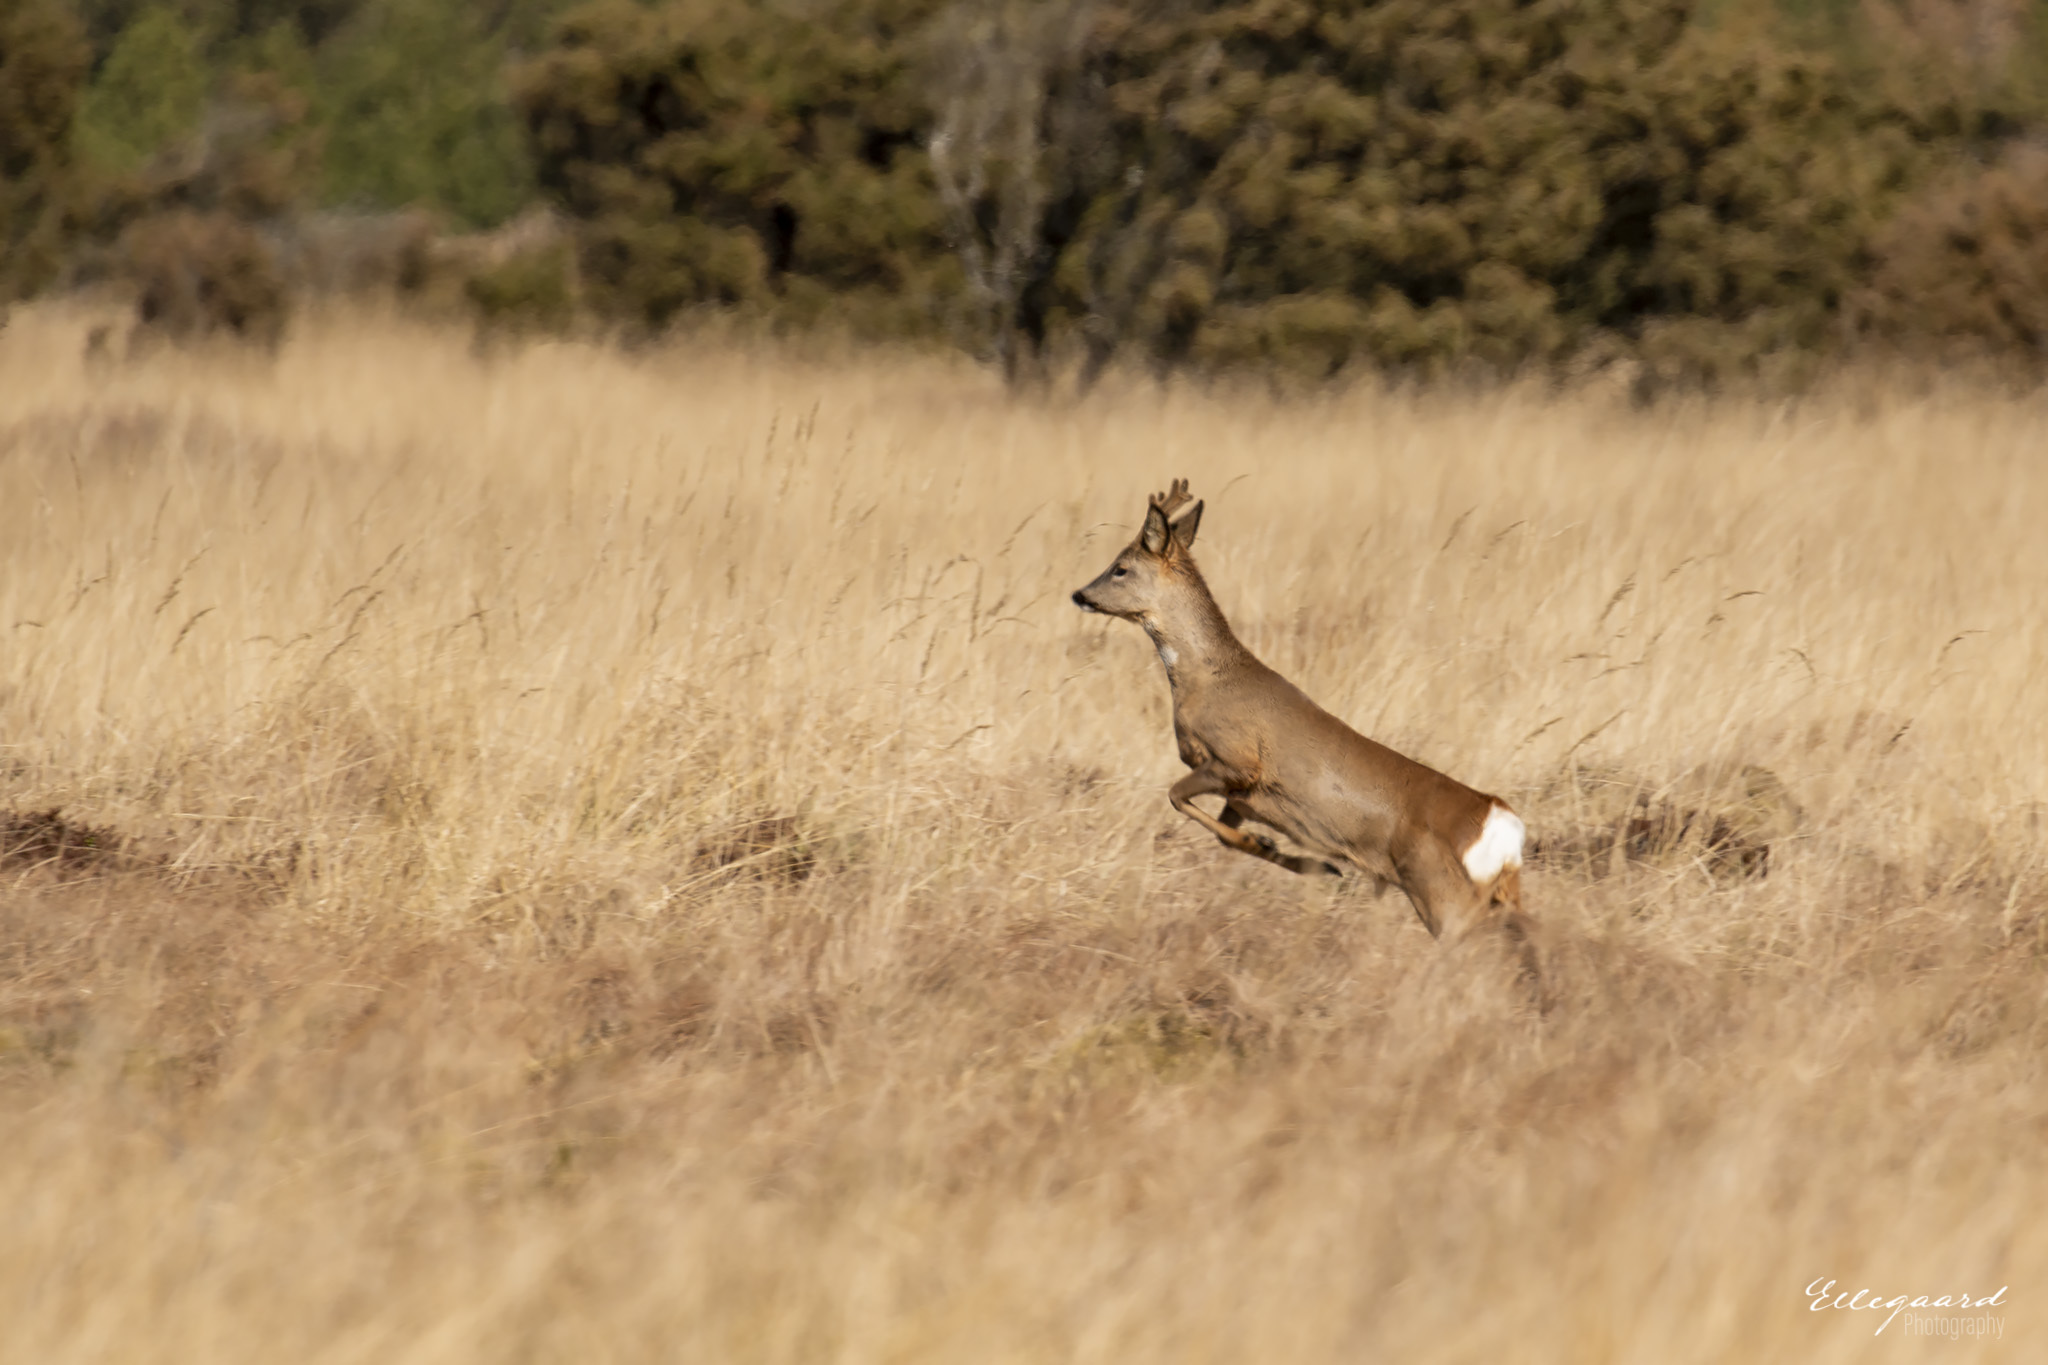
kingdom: Animalia
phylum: Chordata
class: Mammalia
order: Artiodactyla
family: Cervidae
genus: Capreolus
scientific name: Capreolus capreolus
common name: Western roe deer
